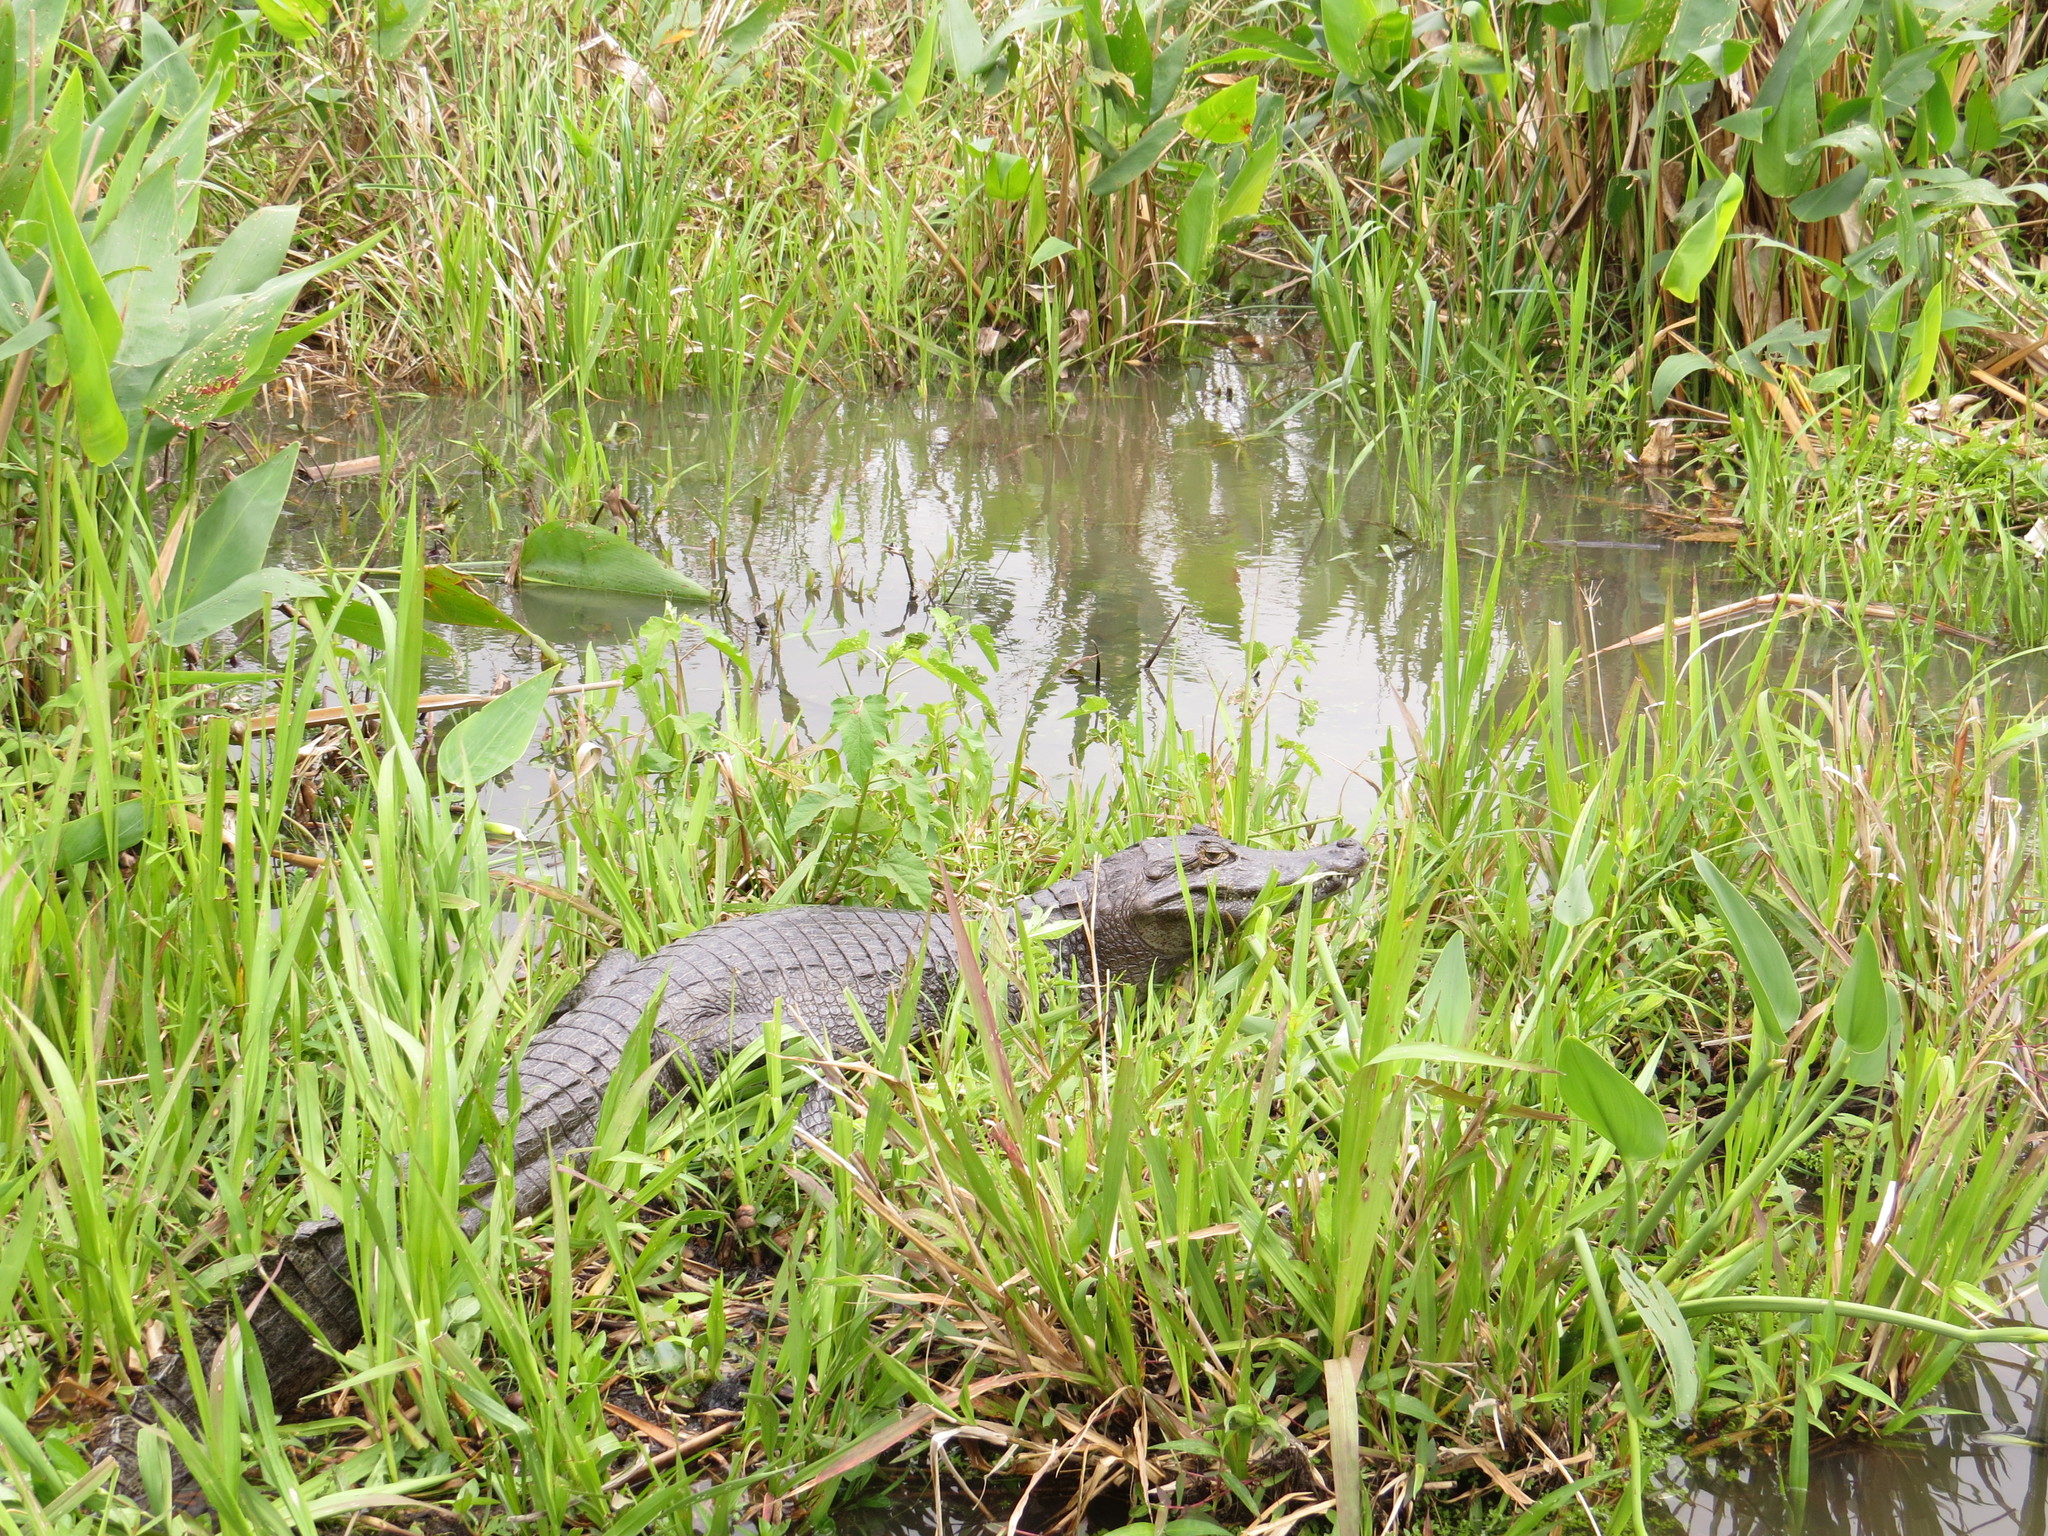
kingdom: Animalia
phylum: Chordata
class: Crocodylia
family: Alligatoridae
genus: Caiman
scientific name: Caiman yacare
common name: Yacare caiman
